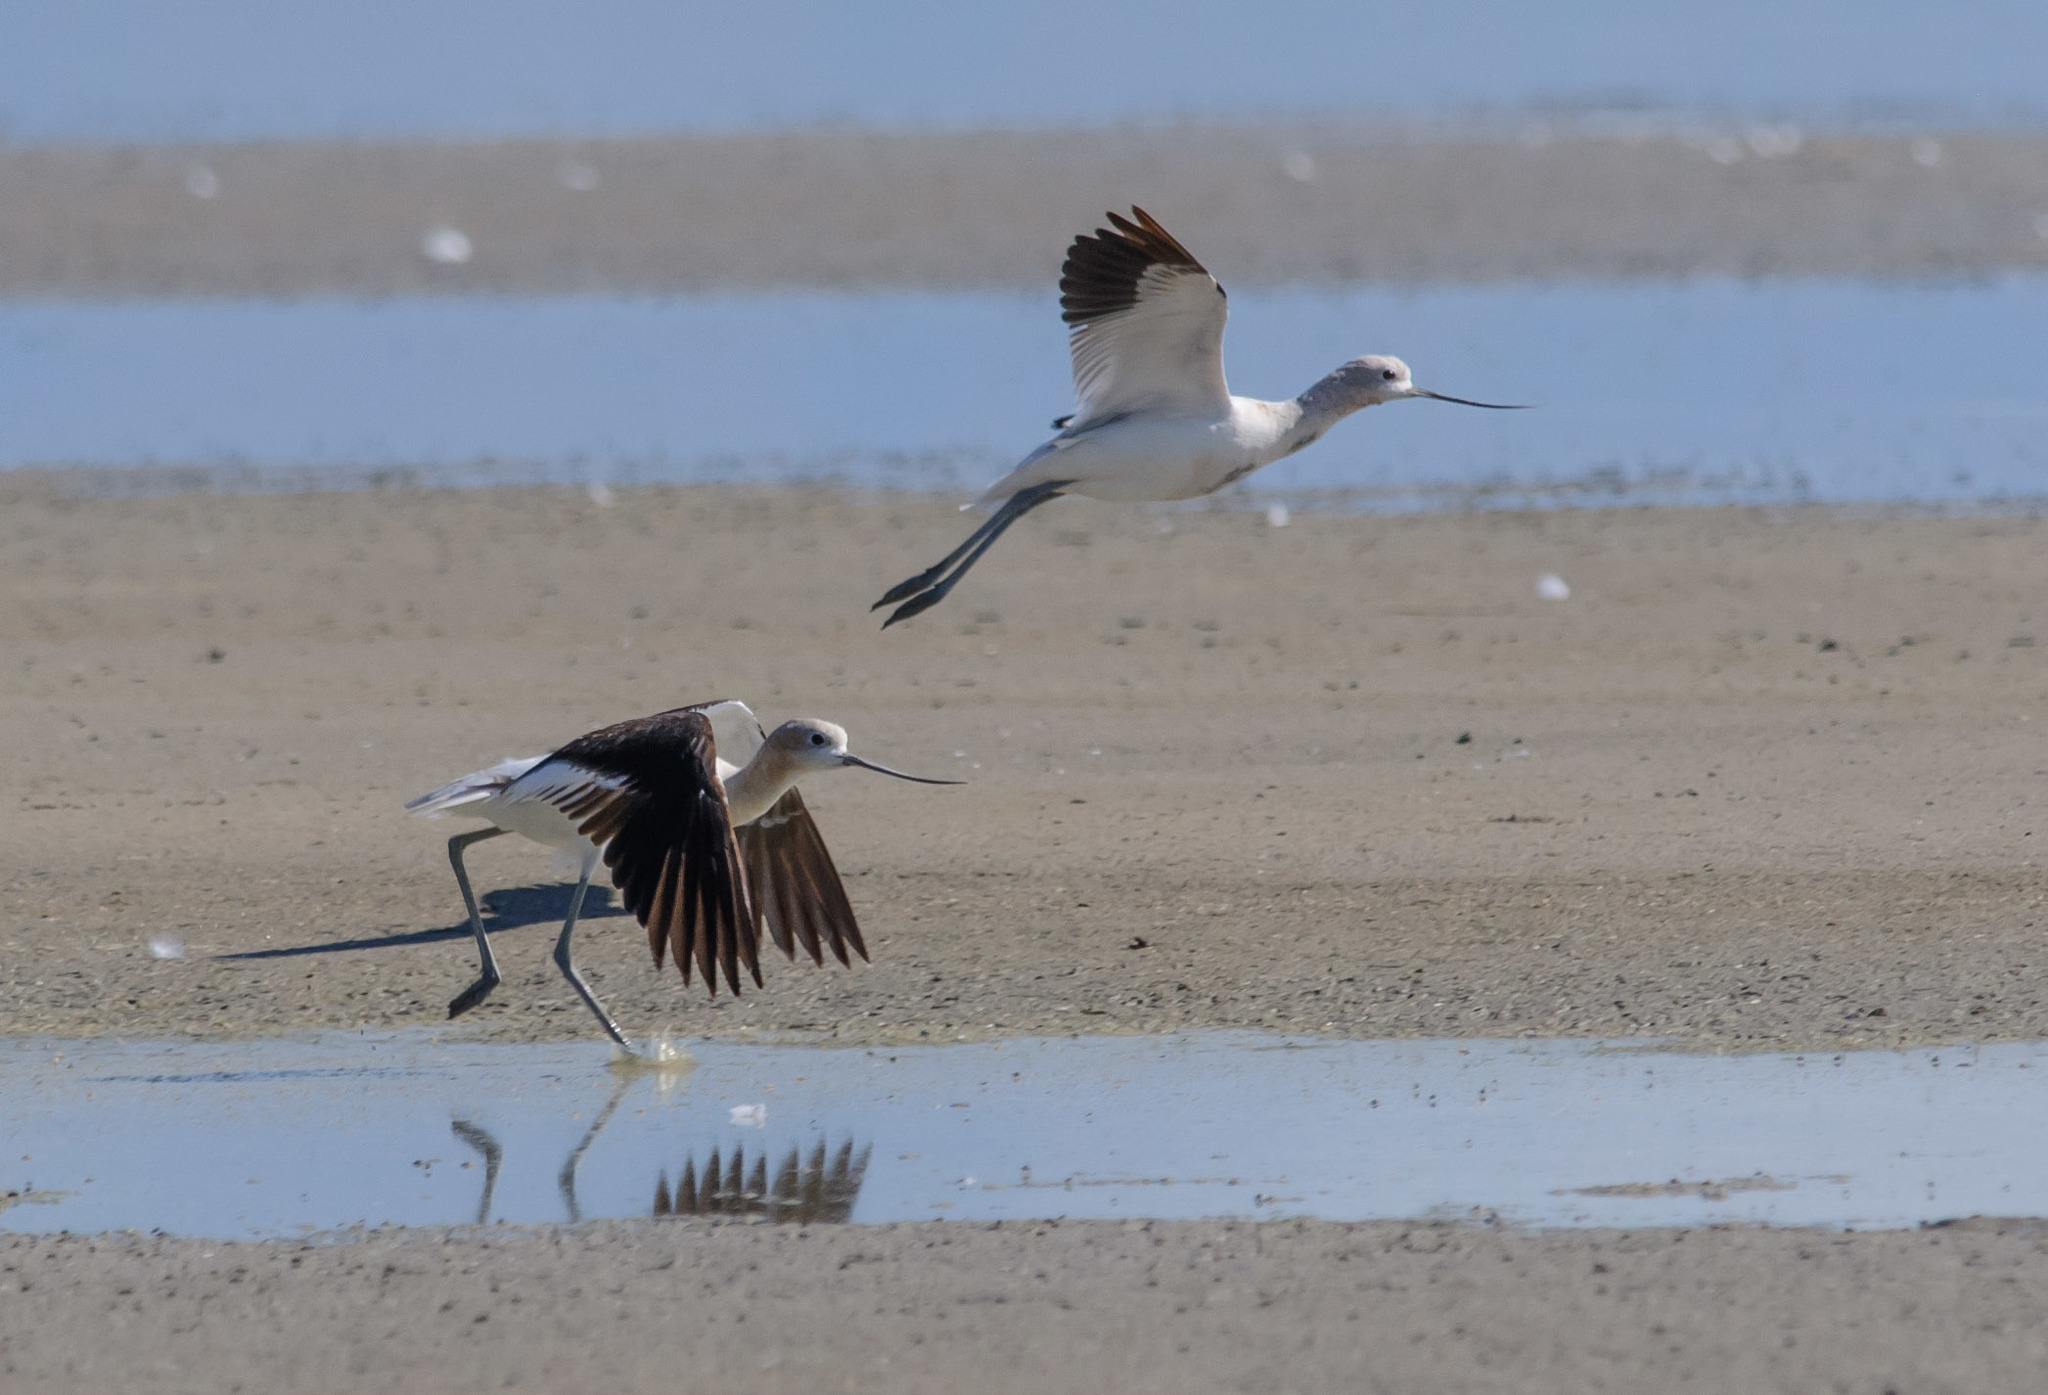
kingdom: Animalia
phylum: Chordata
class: Aves
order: Charadriiformes
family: Recurvirostridae
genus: Recurvirostra
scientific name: Recurvirostra americana
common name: American avocet
